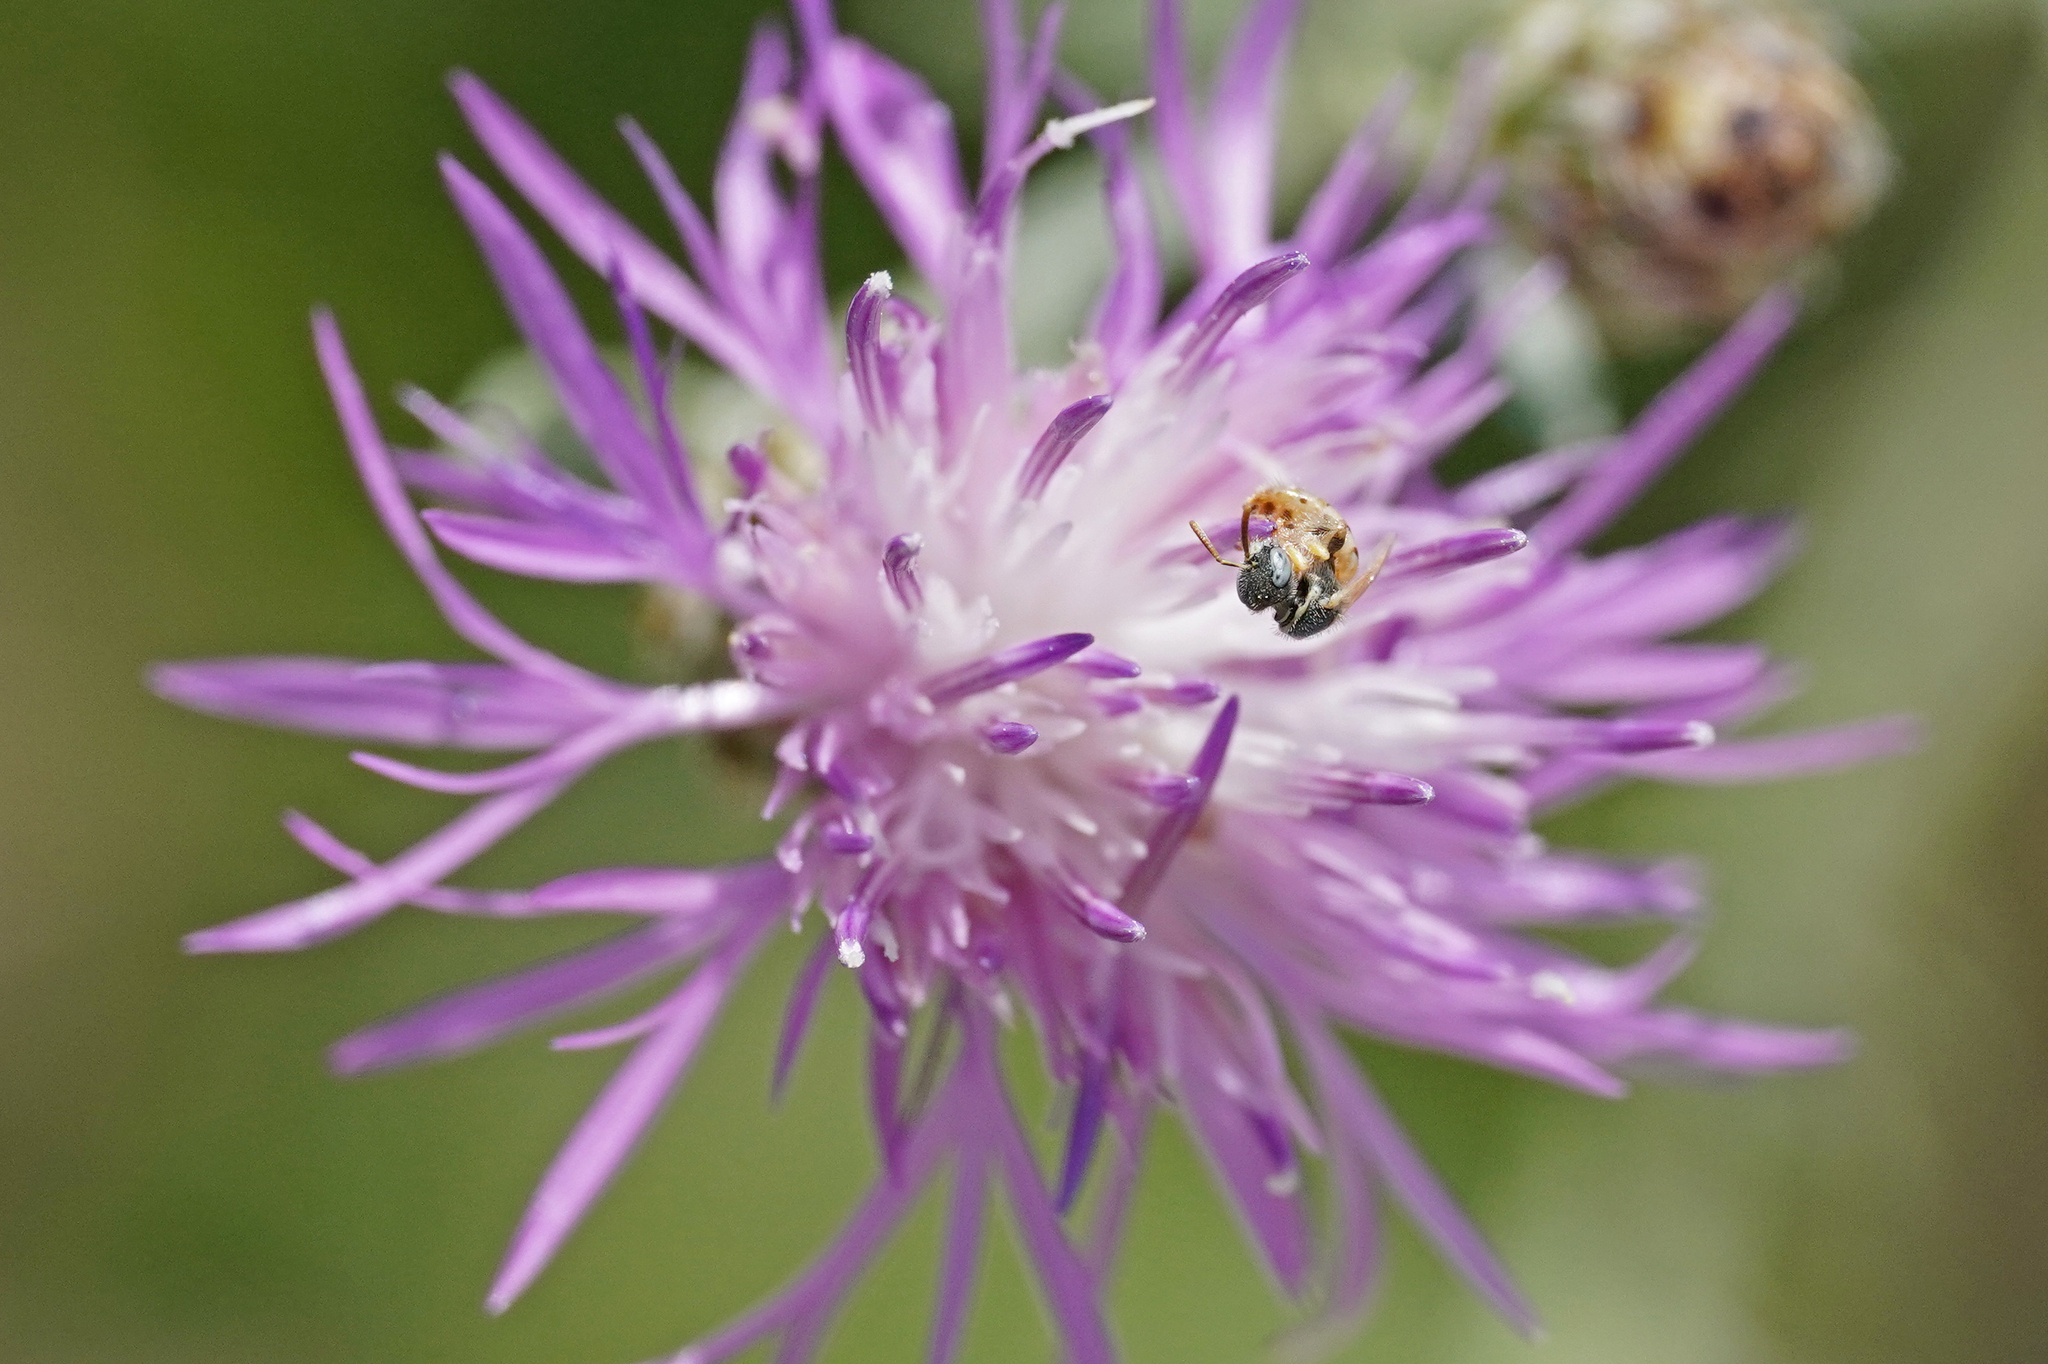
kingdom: Animalia
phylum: Arthropoda
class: Insecta
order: Hymenoptera
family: Halictidae
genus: Nomioides
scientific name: Nomioides minutissimus
